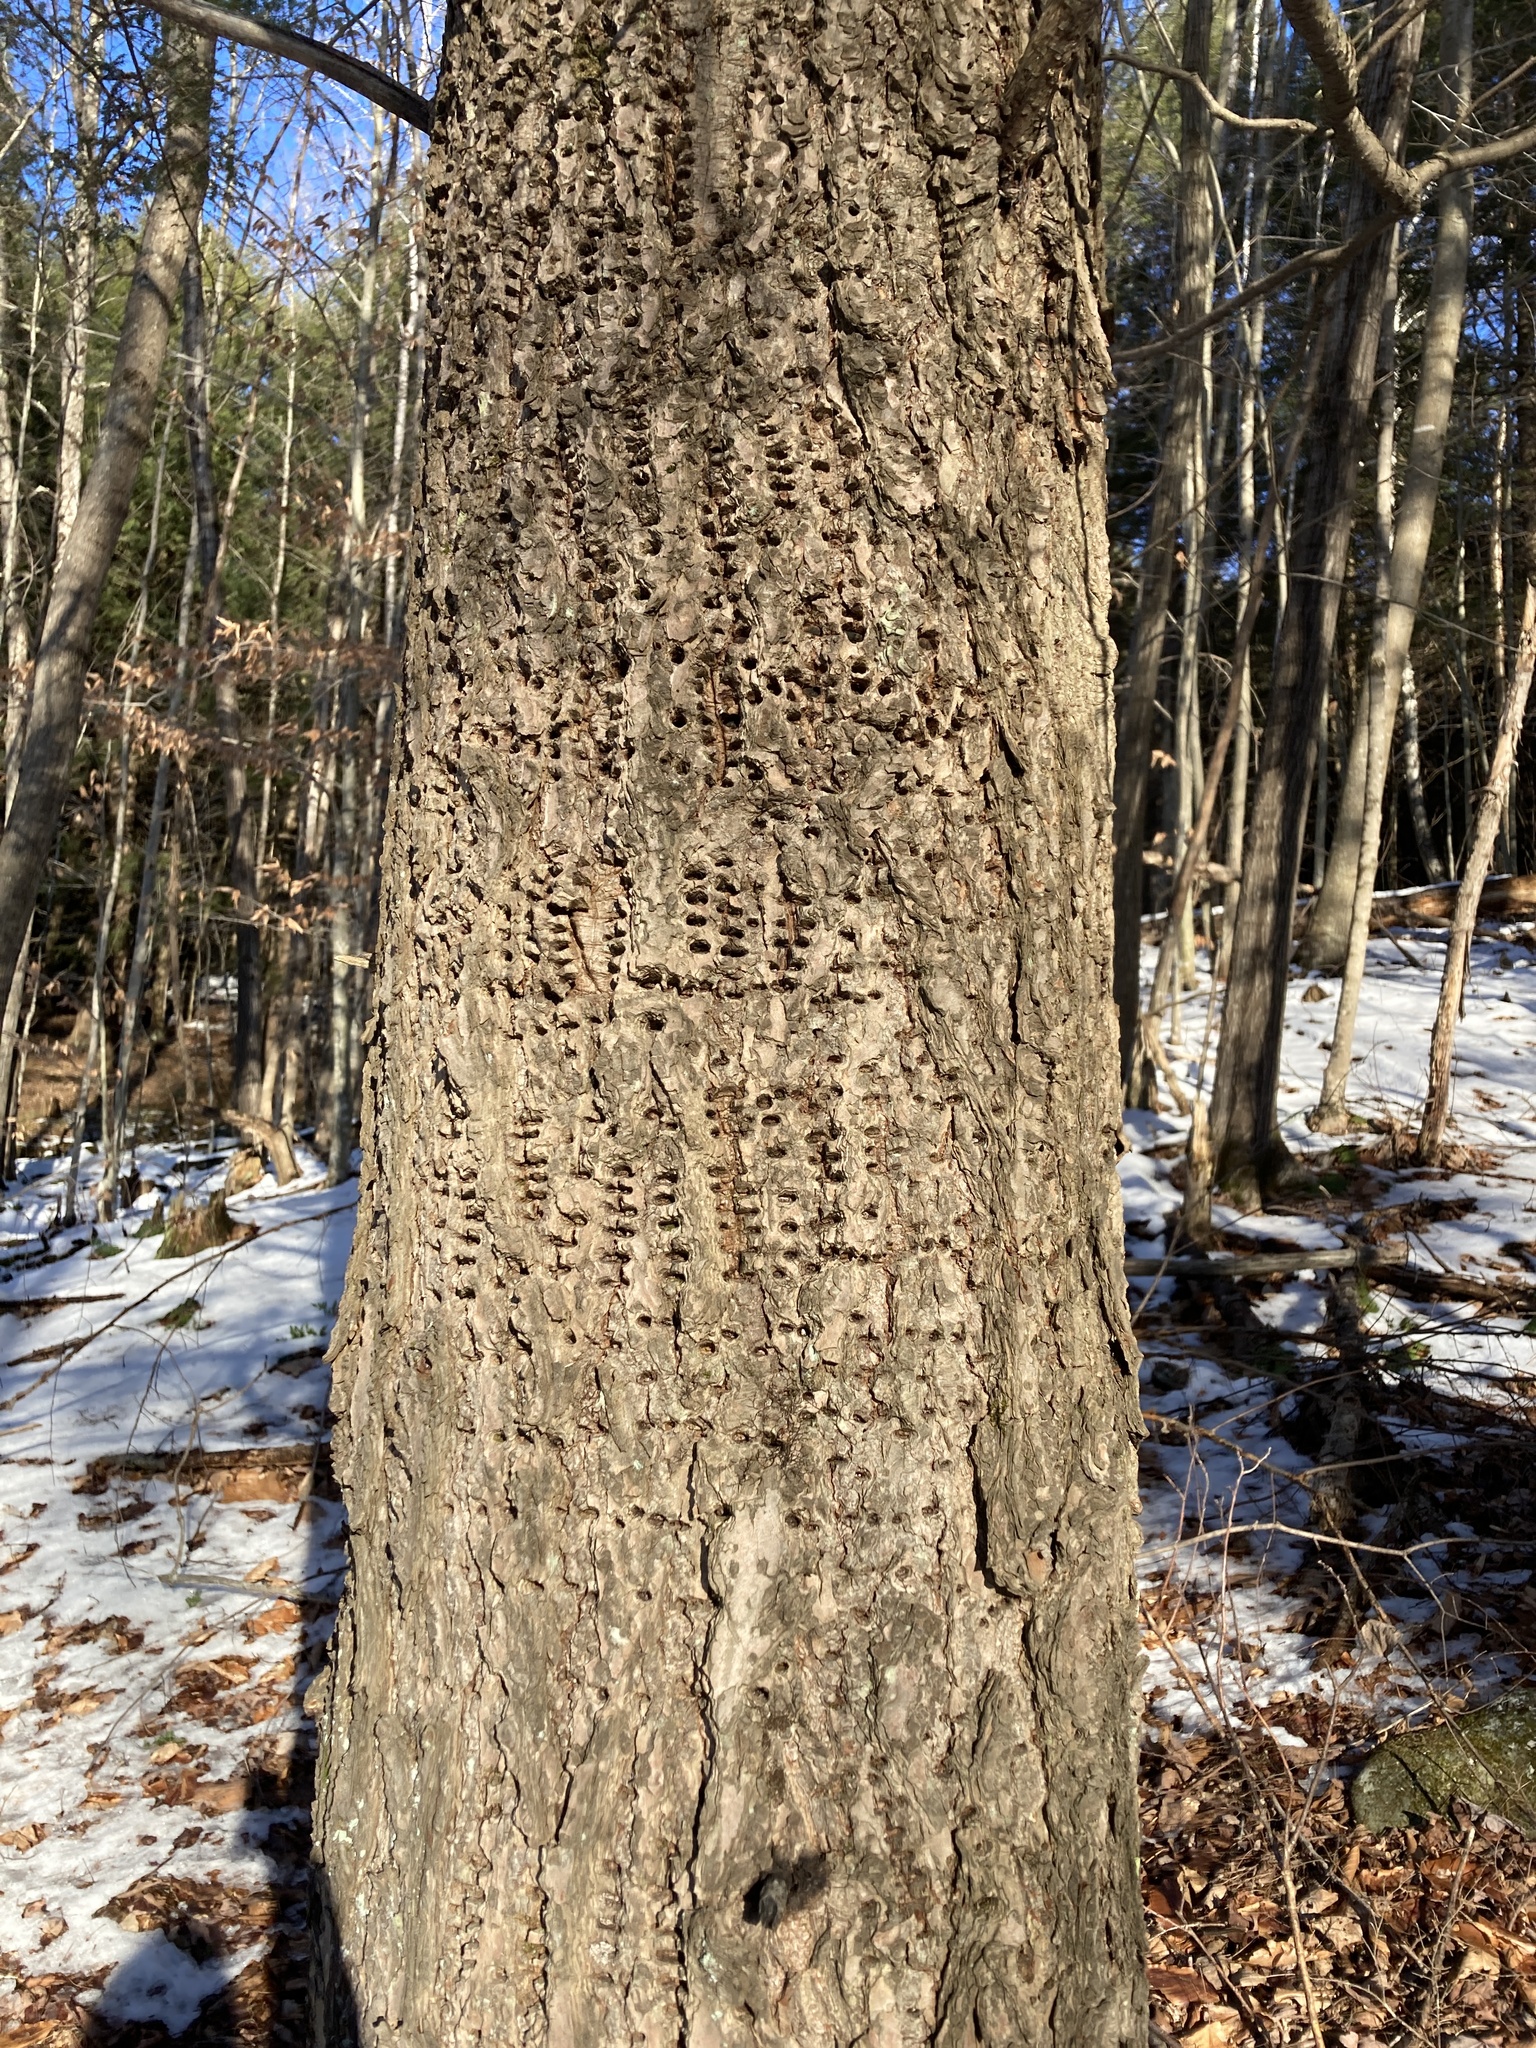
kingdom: Animalia
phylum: Chordata
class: Aves
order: Piciformes
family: Picidae
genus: Sphyrapicus
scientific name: Sphyrapicus varius
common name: Yellow-bellied sapsucker
